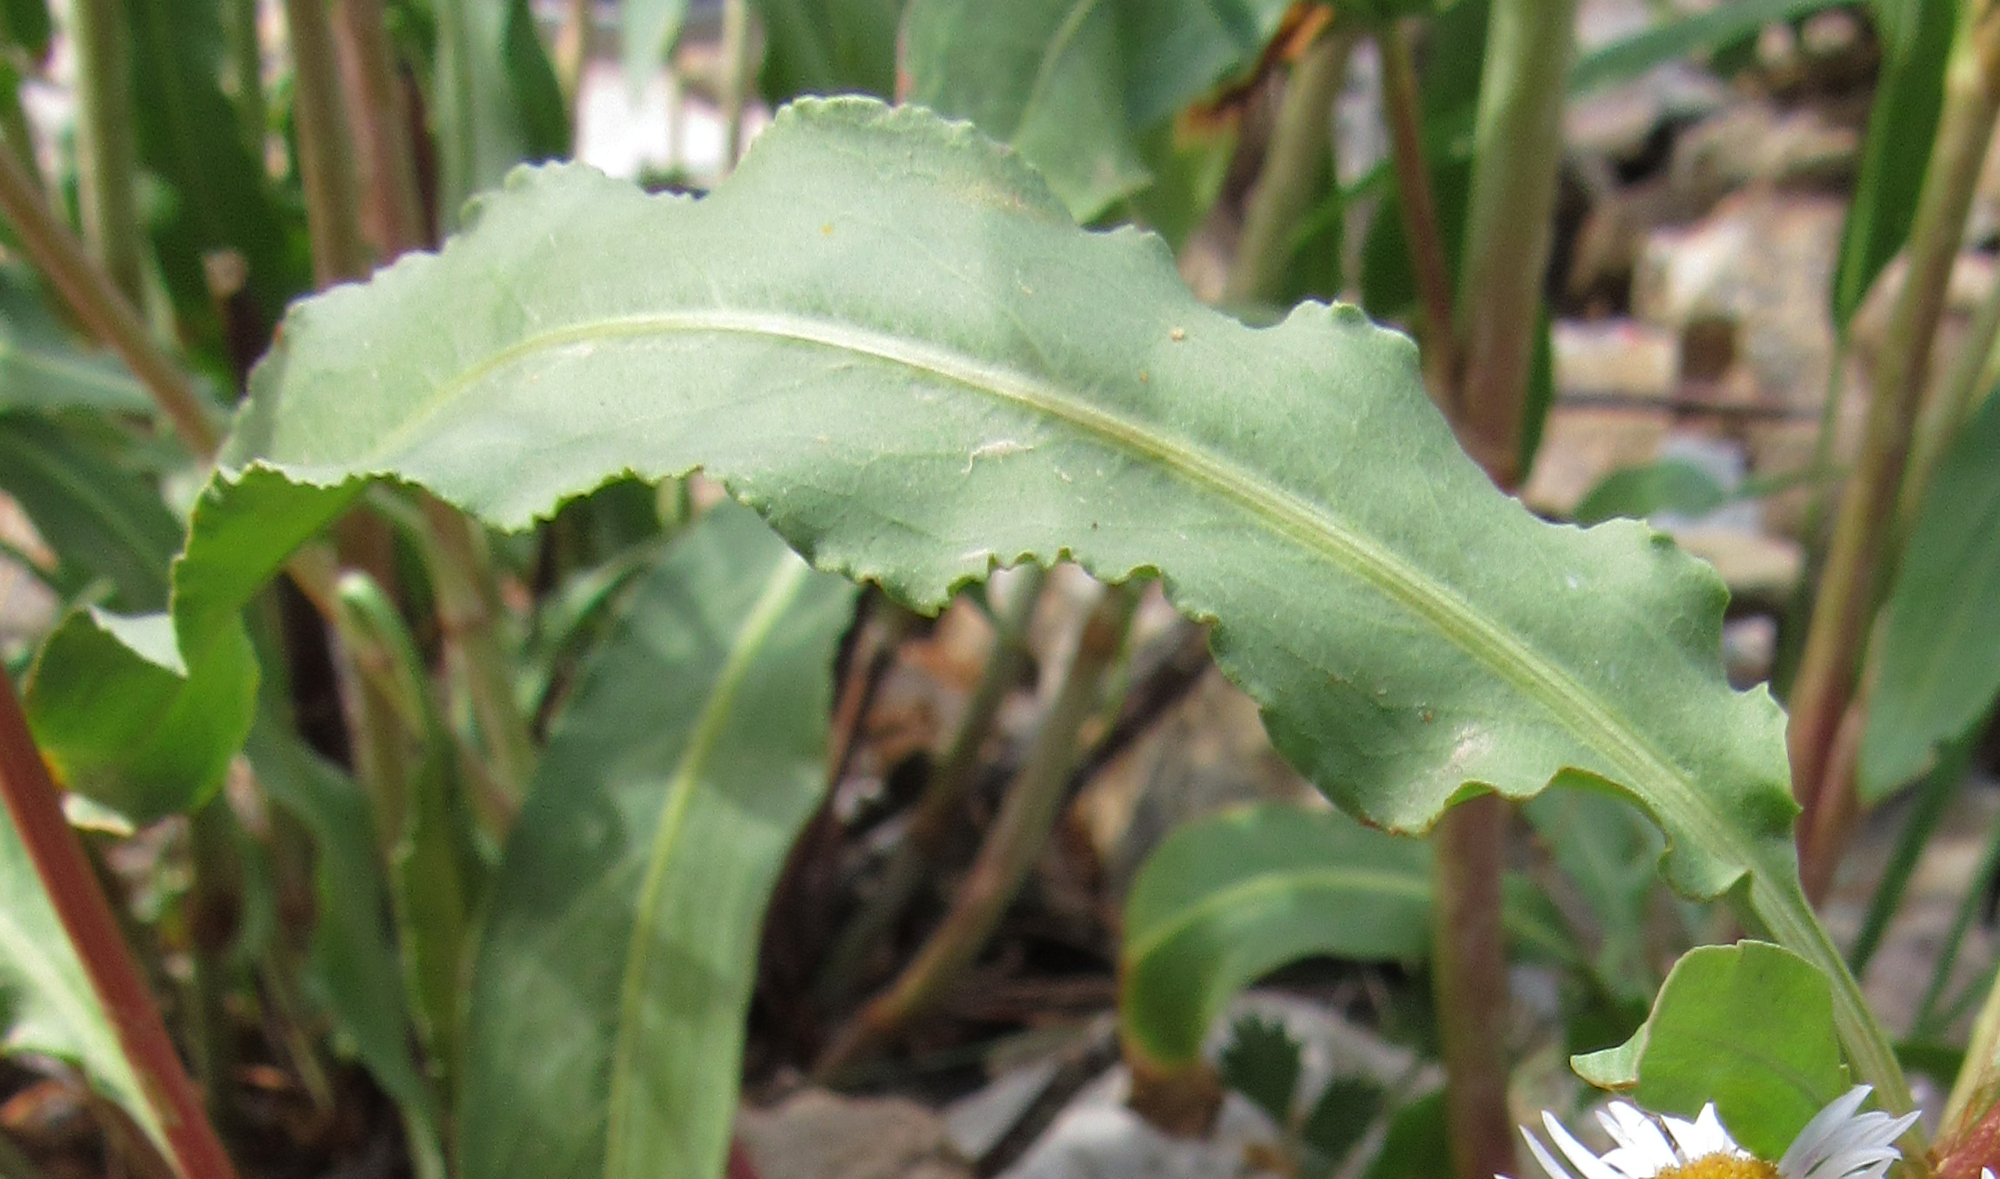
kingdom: Plantae
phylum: Tracheophyta
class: Magnoliopsida
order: Caryophyllales
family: Polygonaceae
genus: Rumex
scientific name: Rumex crispus
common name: Curled dock
